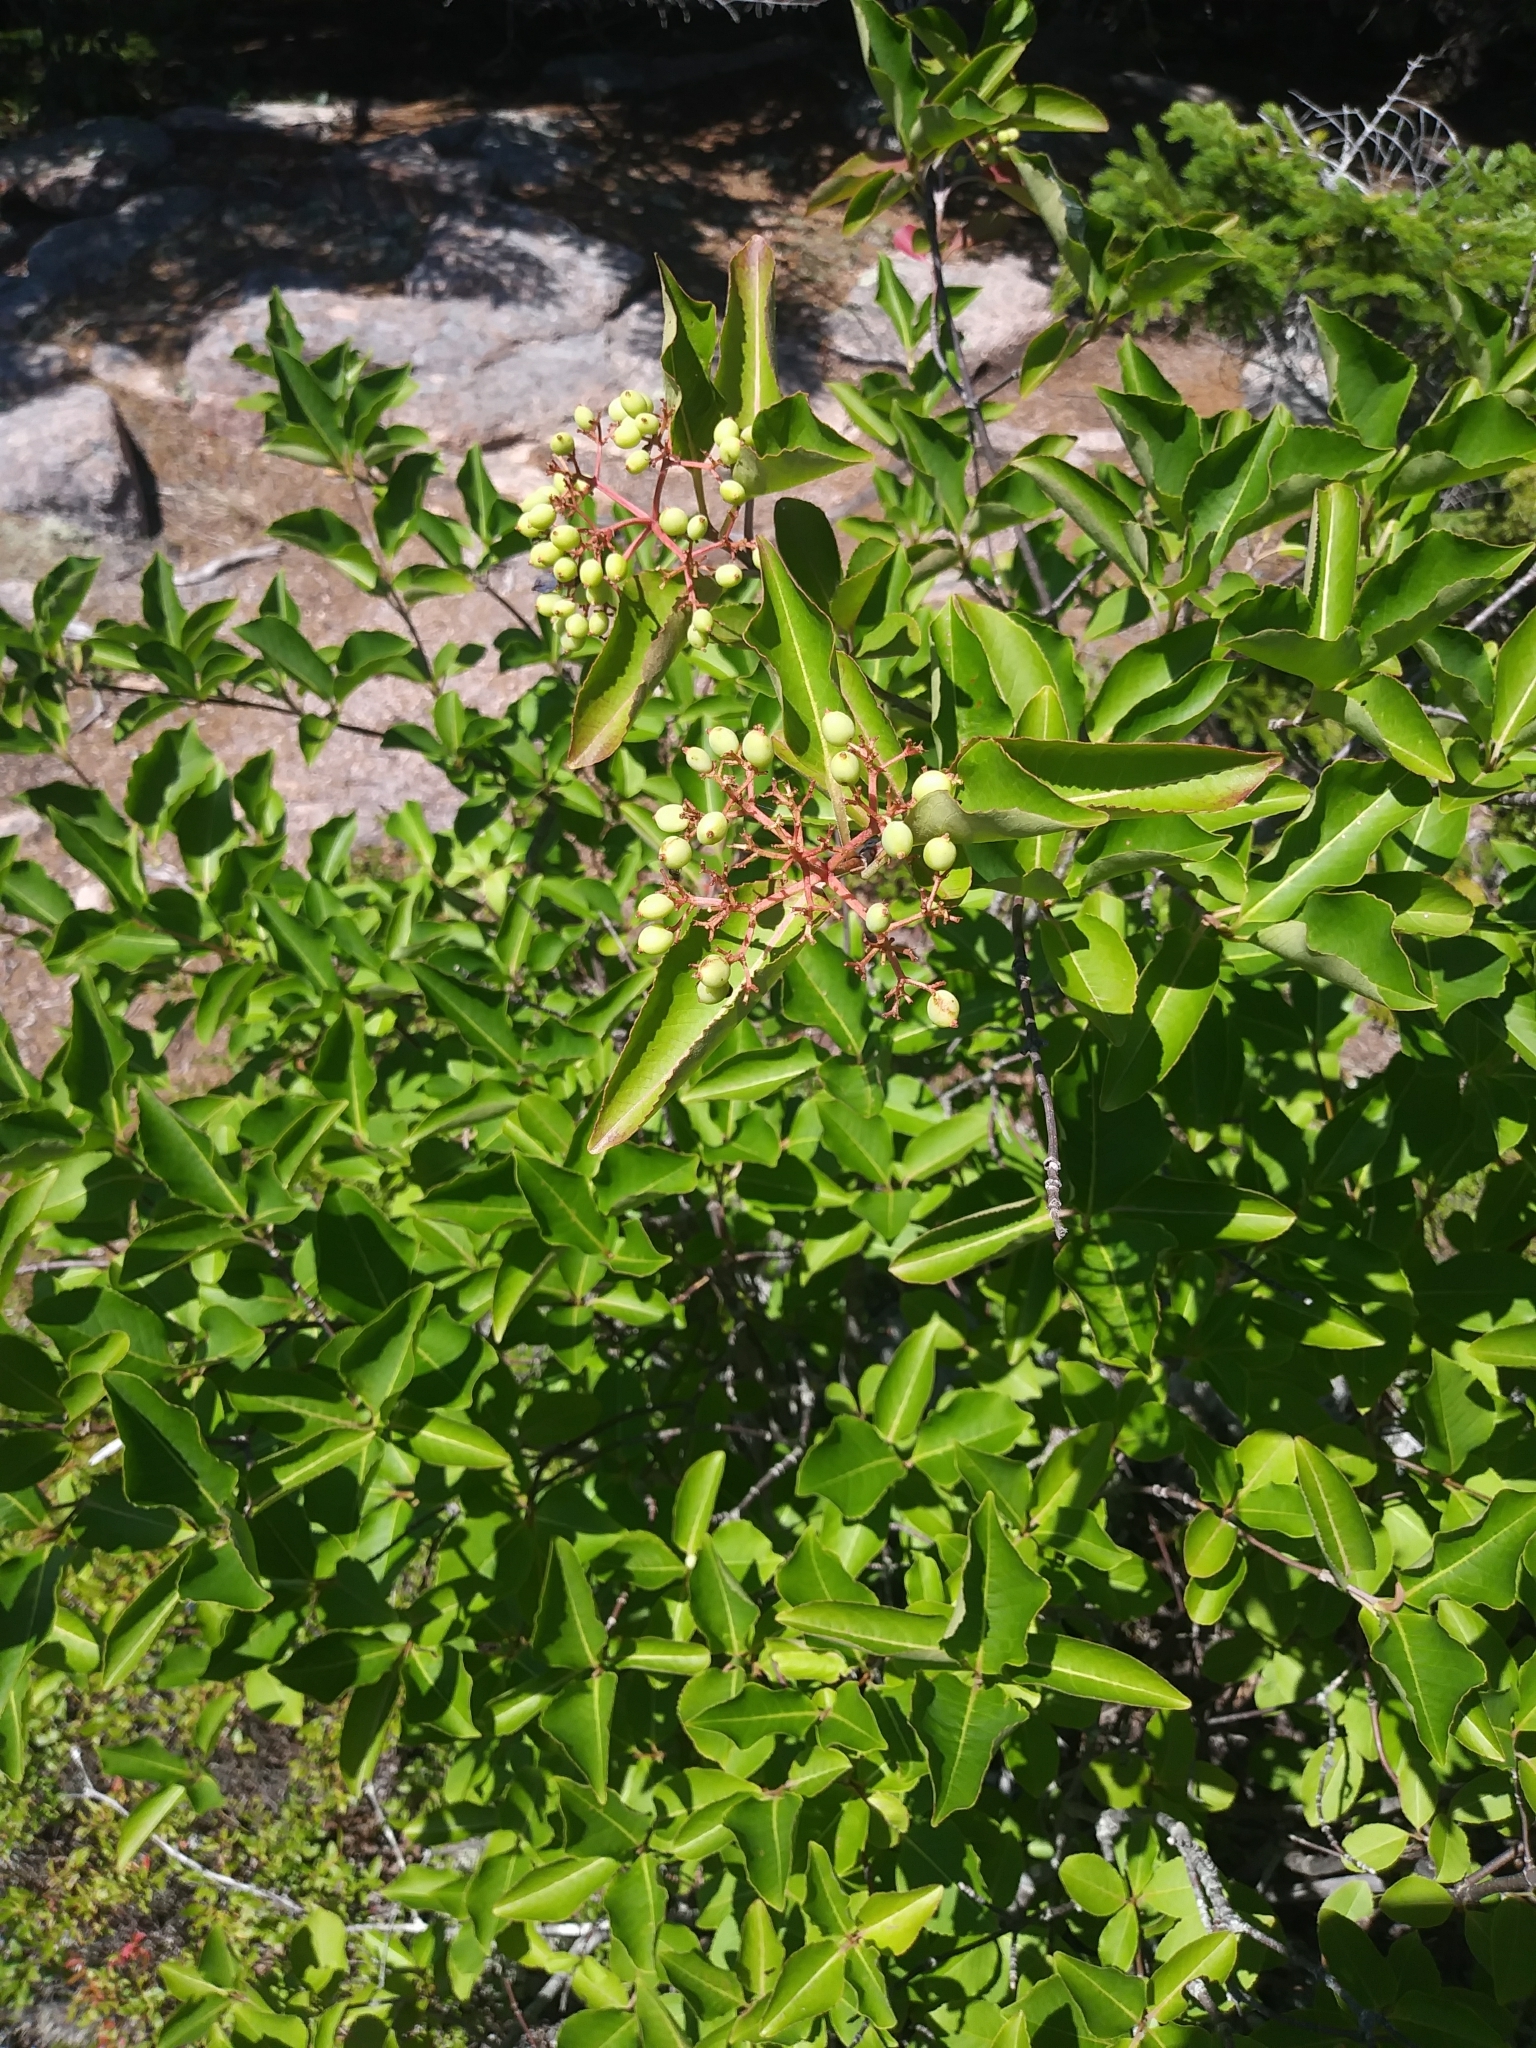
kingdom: Plantae
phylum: Tracheophyta
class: Magnoliopsida
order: Dipsacales
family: Viburnaceae
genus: Viburnum
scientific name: Viburnum cassinoides
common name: Swamp haw
